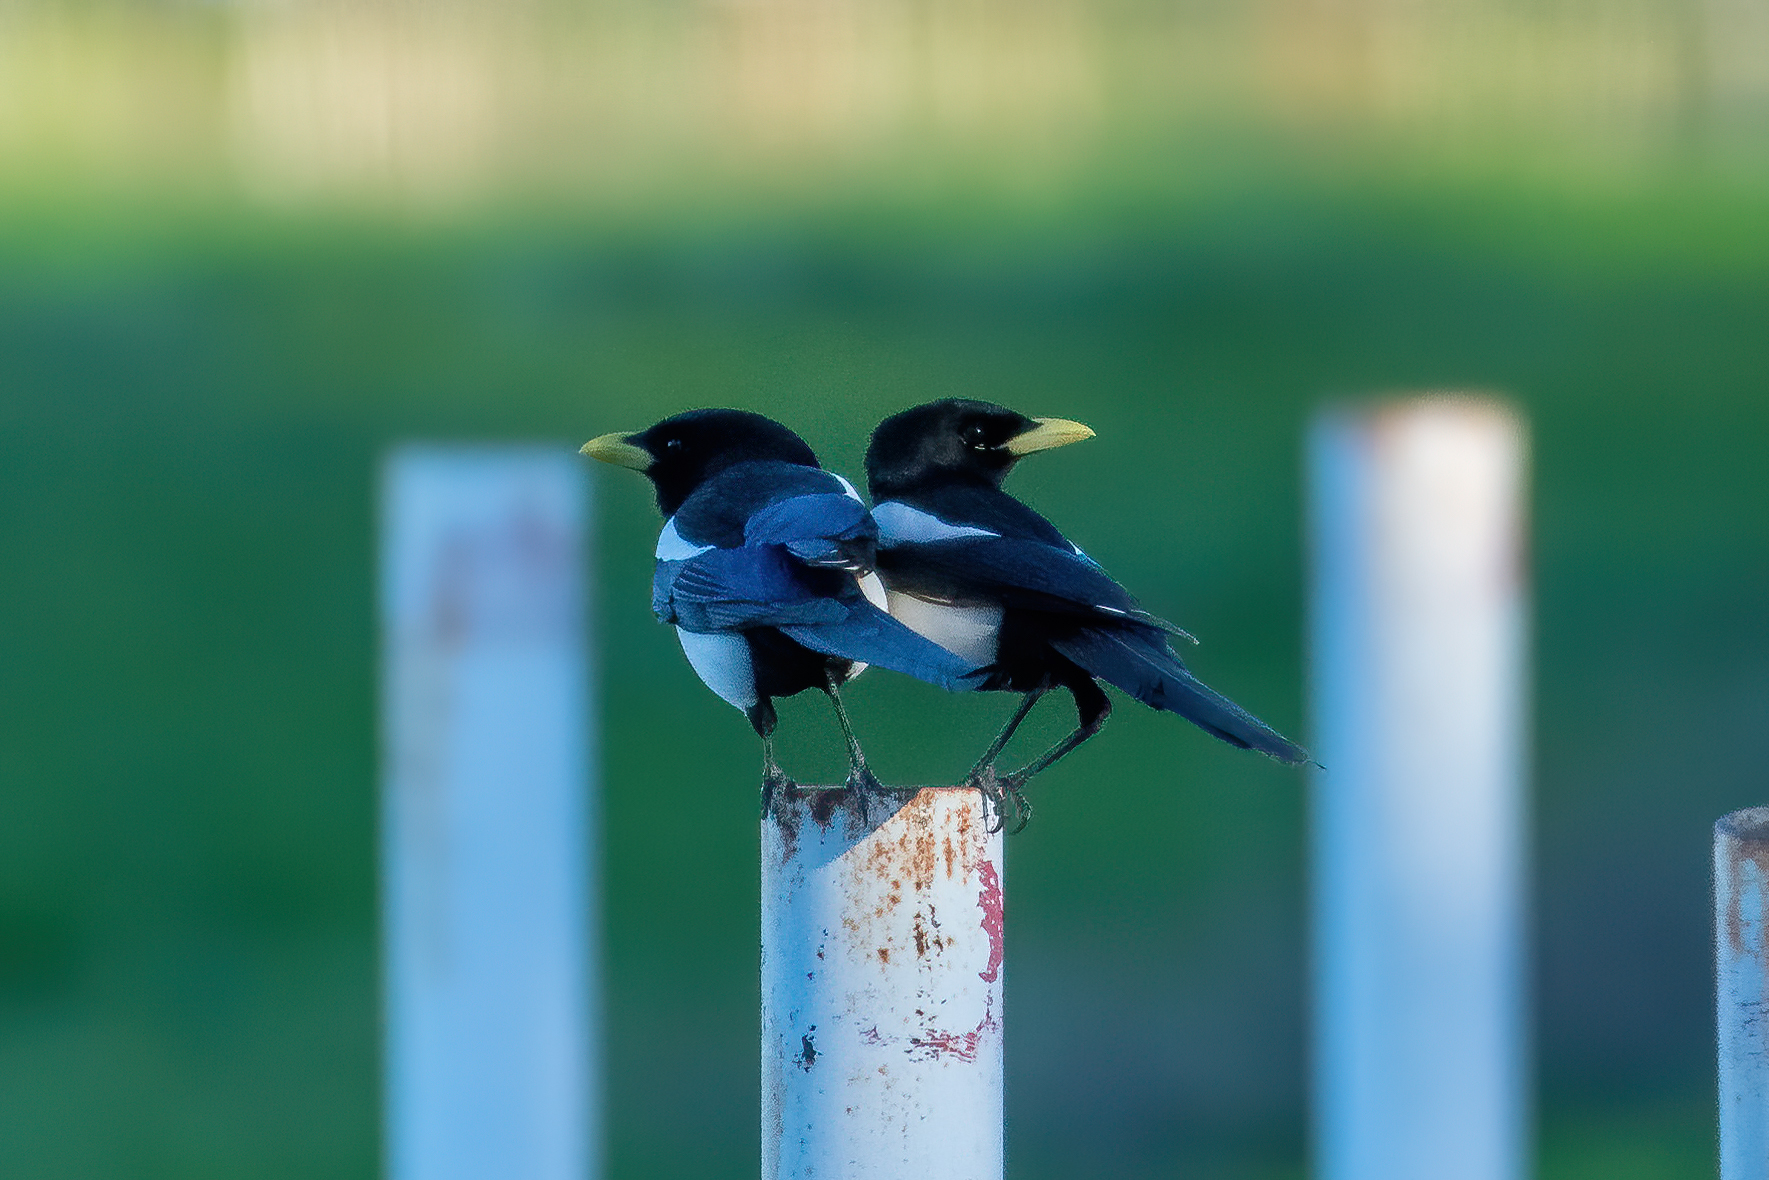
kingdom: Animalia
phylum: Chordata
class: Aves
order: Passeriformes
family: Corvidae
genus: Pica
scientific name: Pica nuttalli
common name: Yellow-billed magpie
